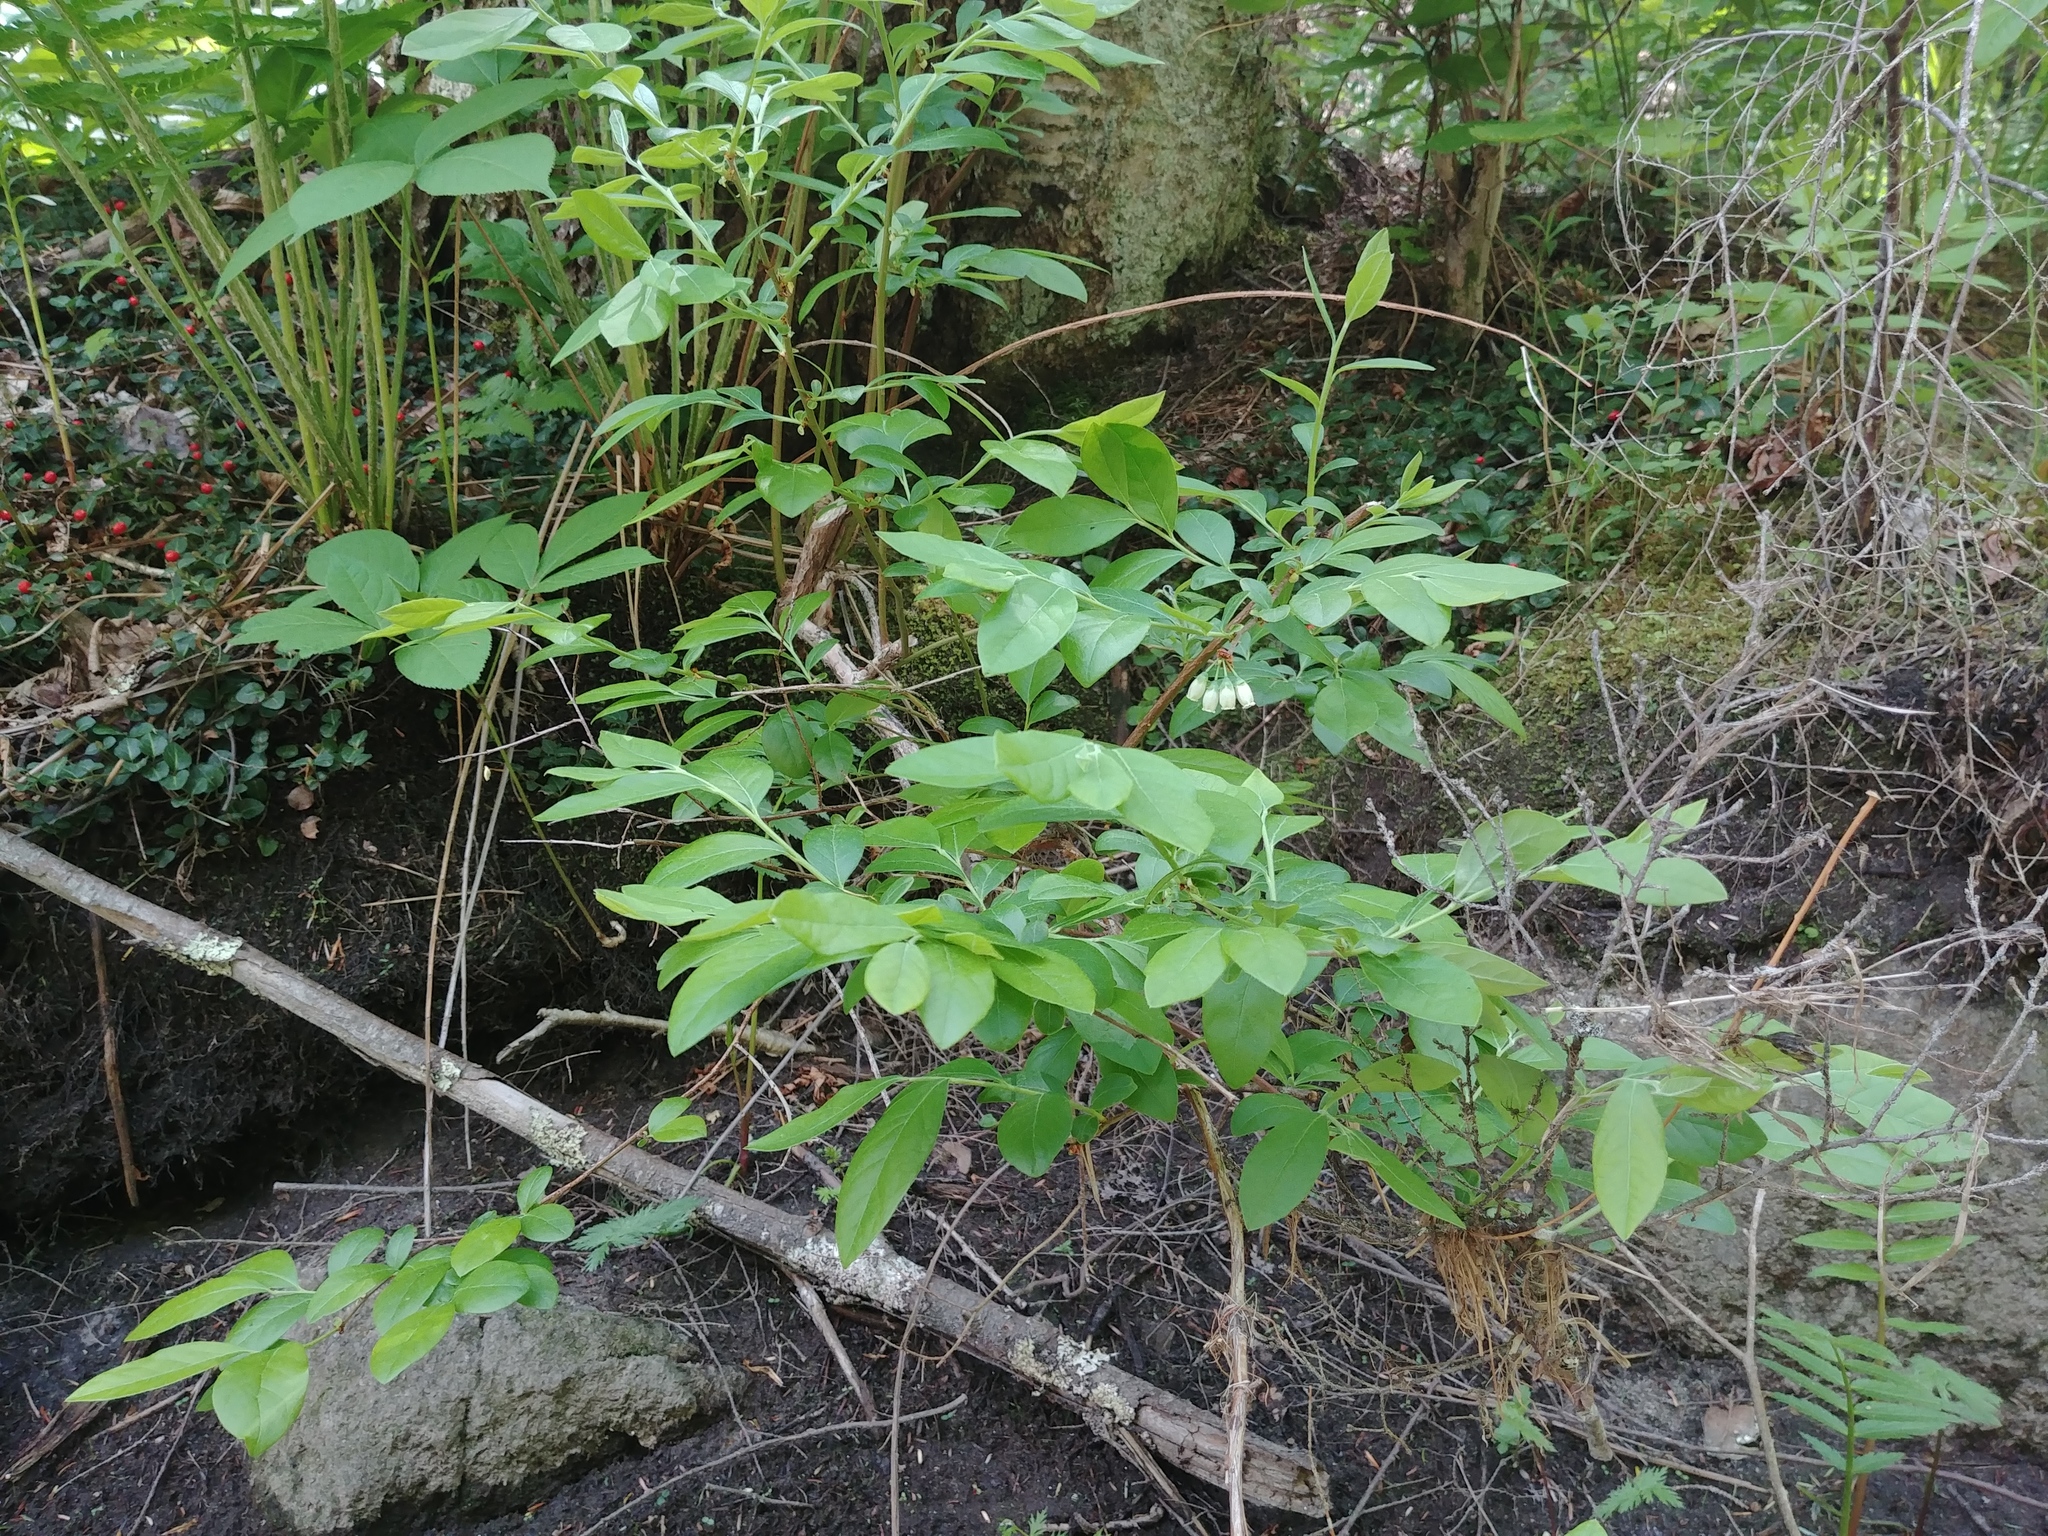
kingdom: Plantae
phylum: Tracheophyta
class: Magnoliopsida
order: Ericales
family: Ericaceae
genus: Vaccinium
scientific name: Vaccinium corymbosum
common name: Blueberry
